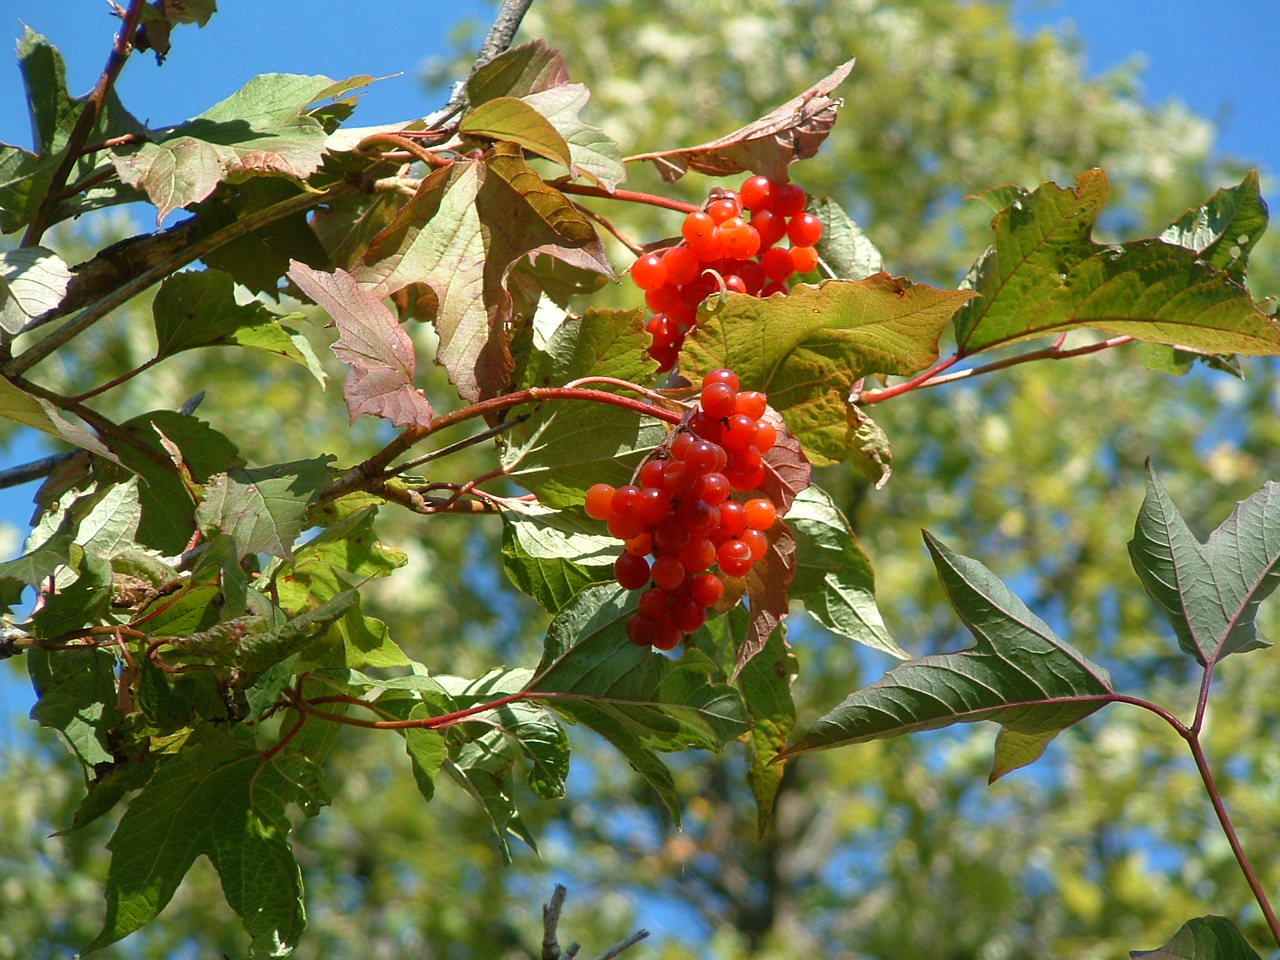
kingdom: Plantae
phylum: Tracheophyta
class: Magnoliopsida
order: Dipsacales
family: Viburnaceae
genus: Viburnum
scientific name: Viburnum trilobum
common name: American cranberrybush
